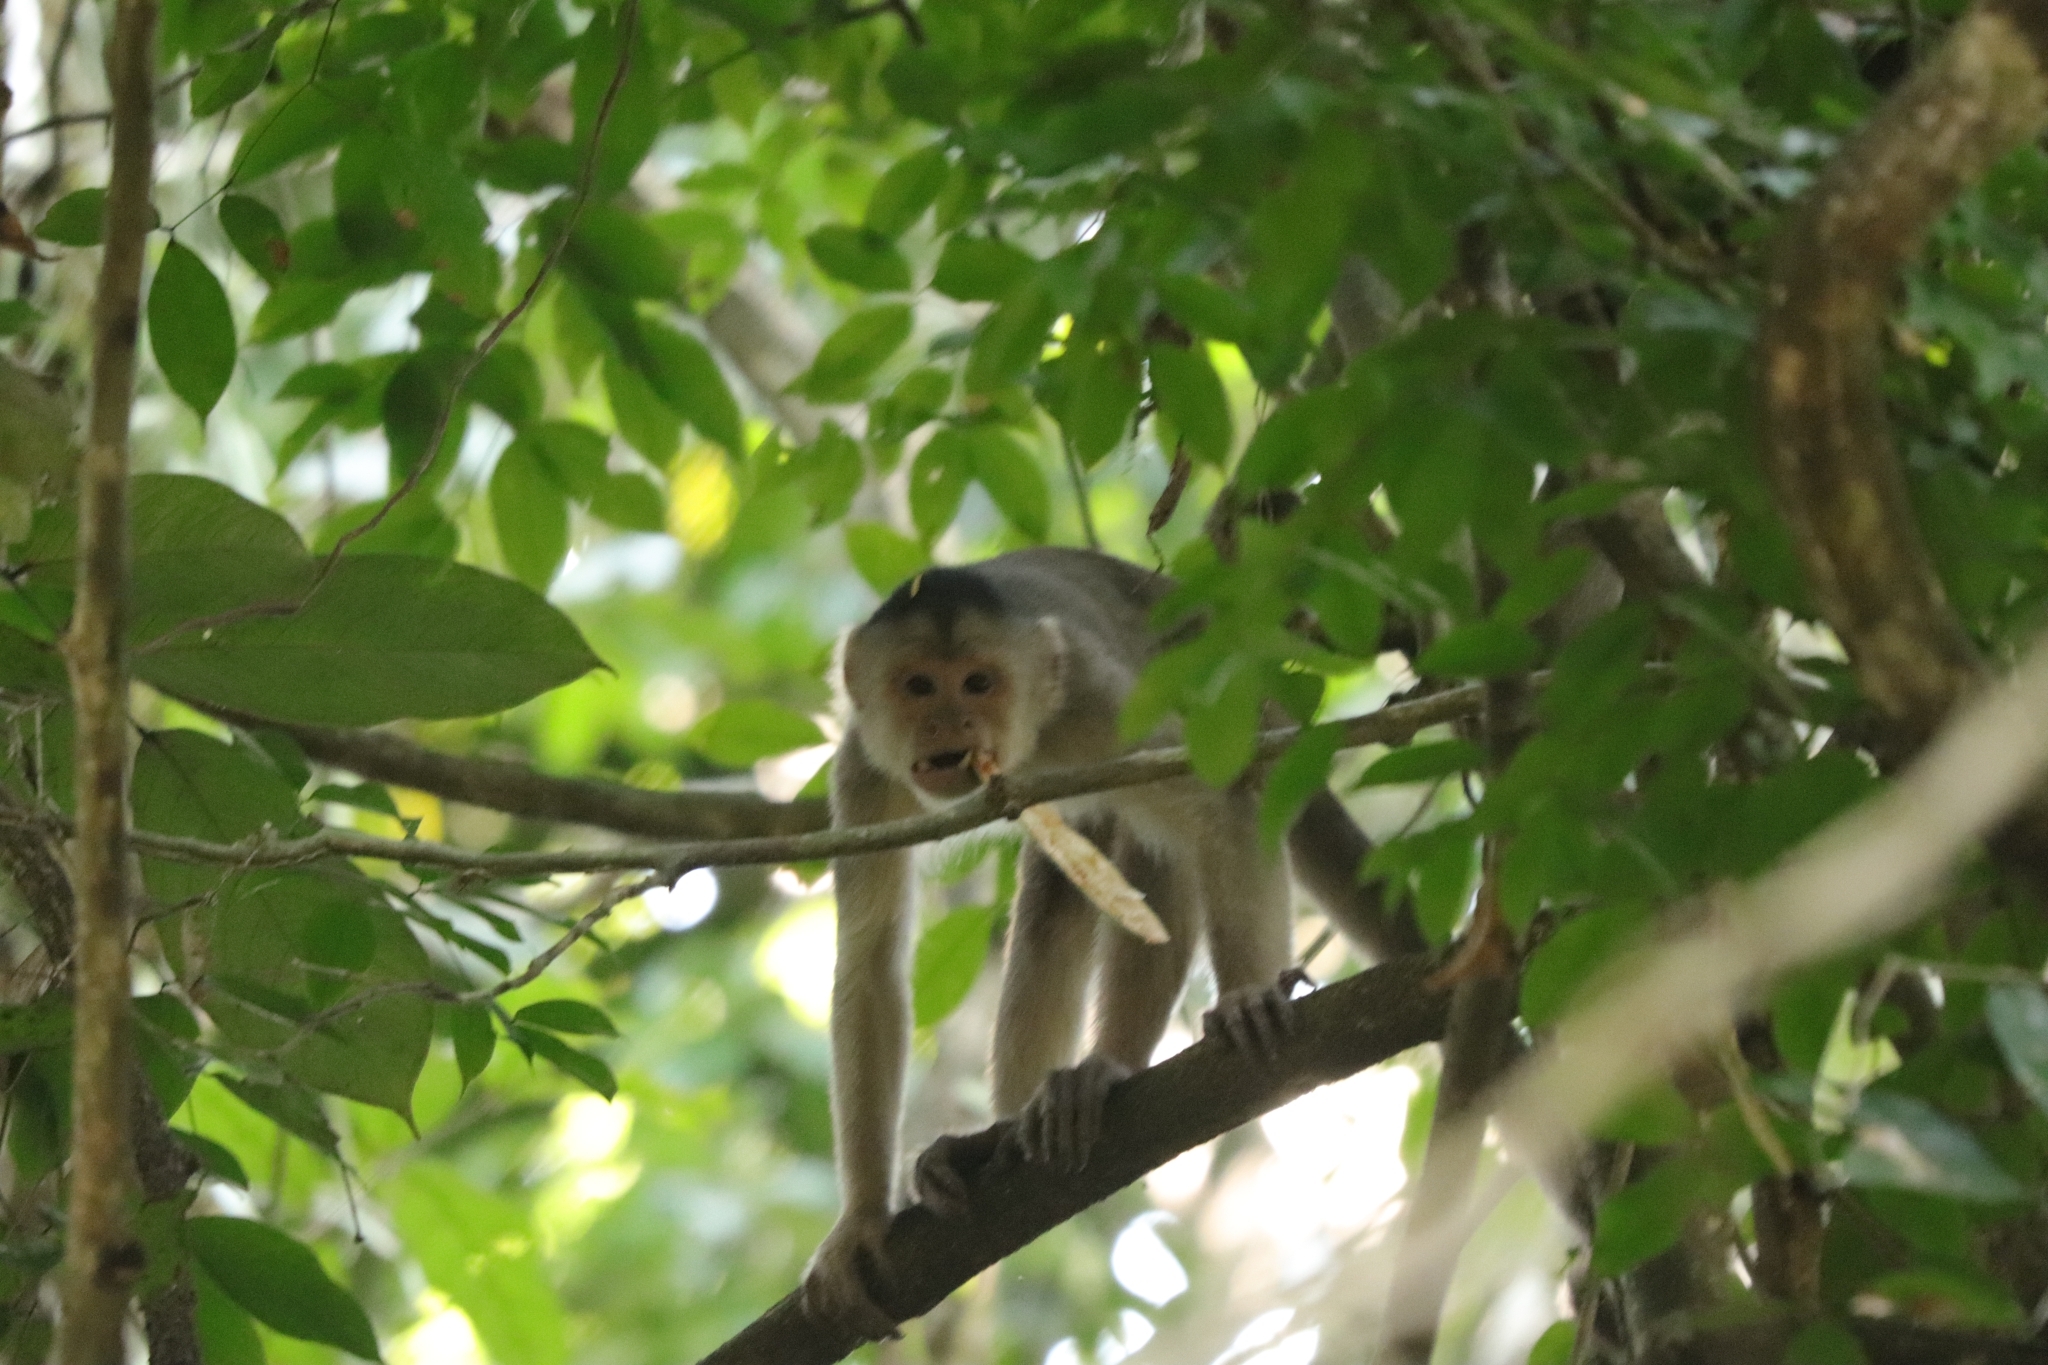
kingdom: Animalia
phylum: Chordata
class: Mammalia
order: Primates
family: Cebidae
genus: Cebus
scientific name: Cebus yuracus
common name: Peruvian white-fronted capuchin
